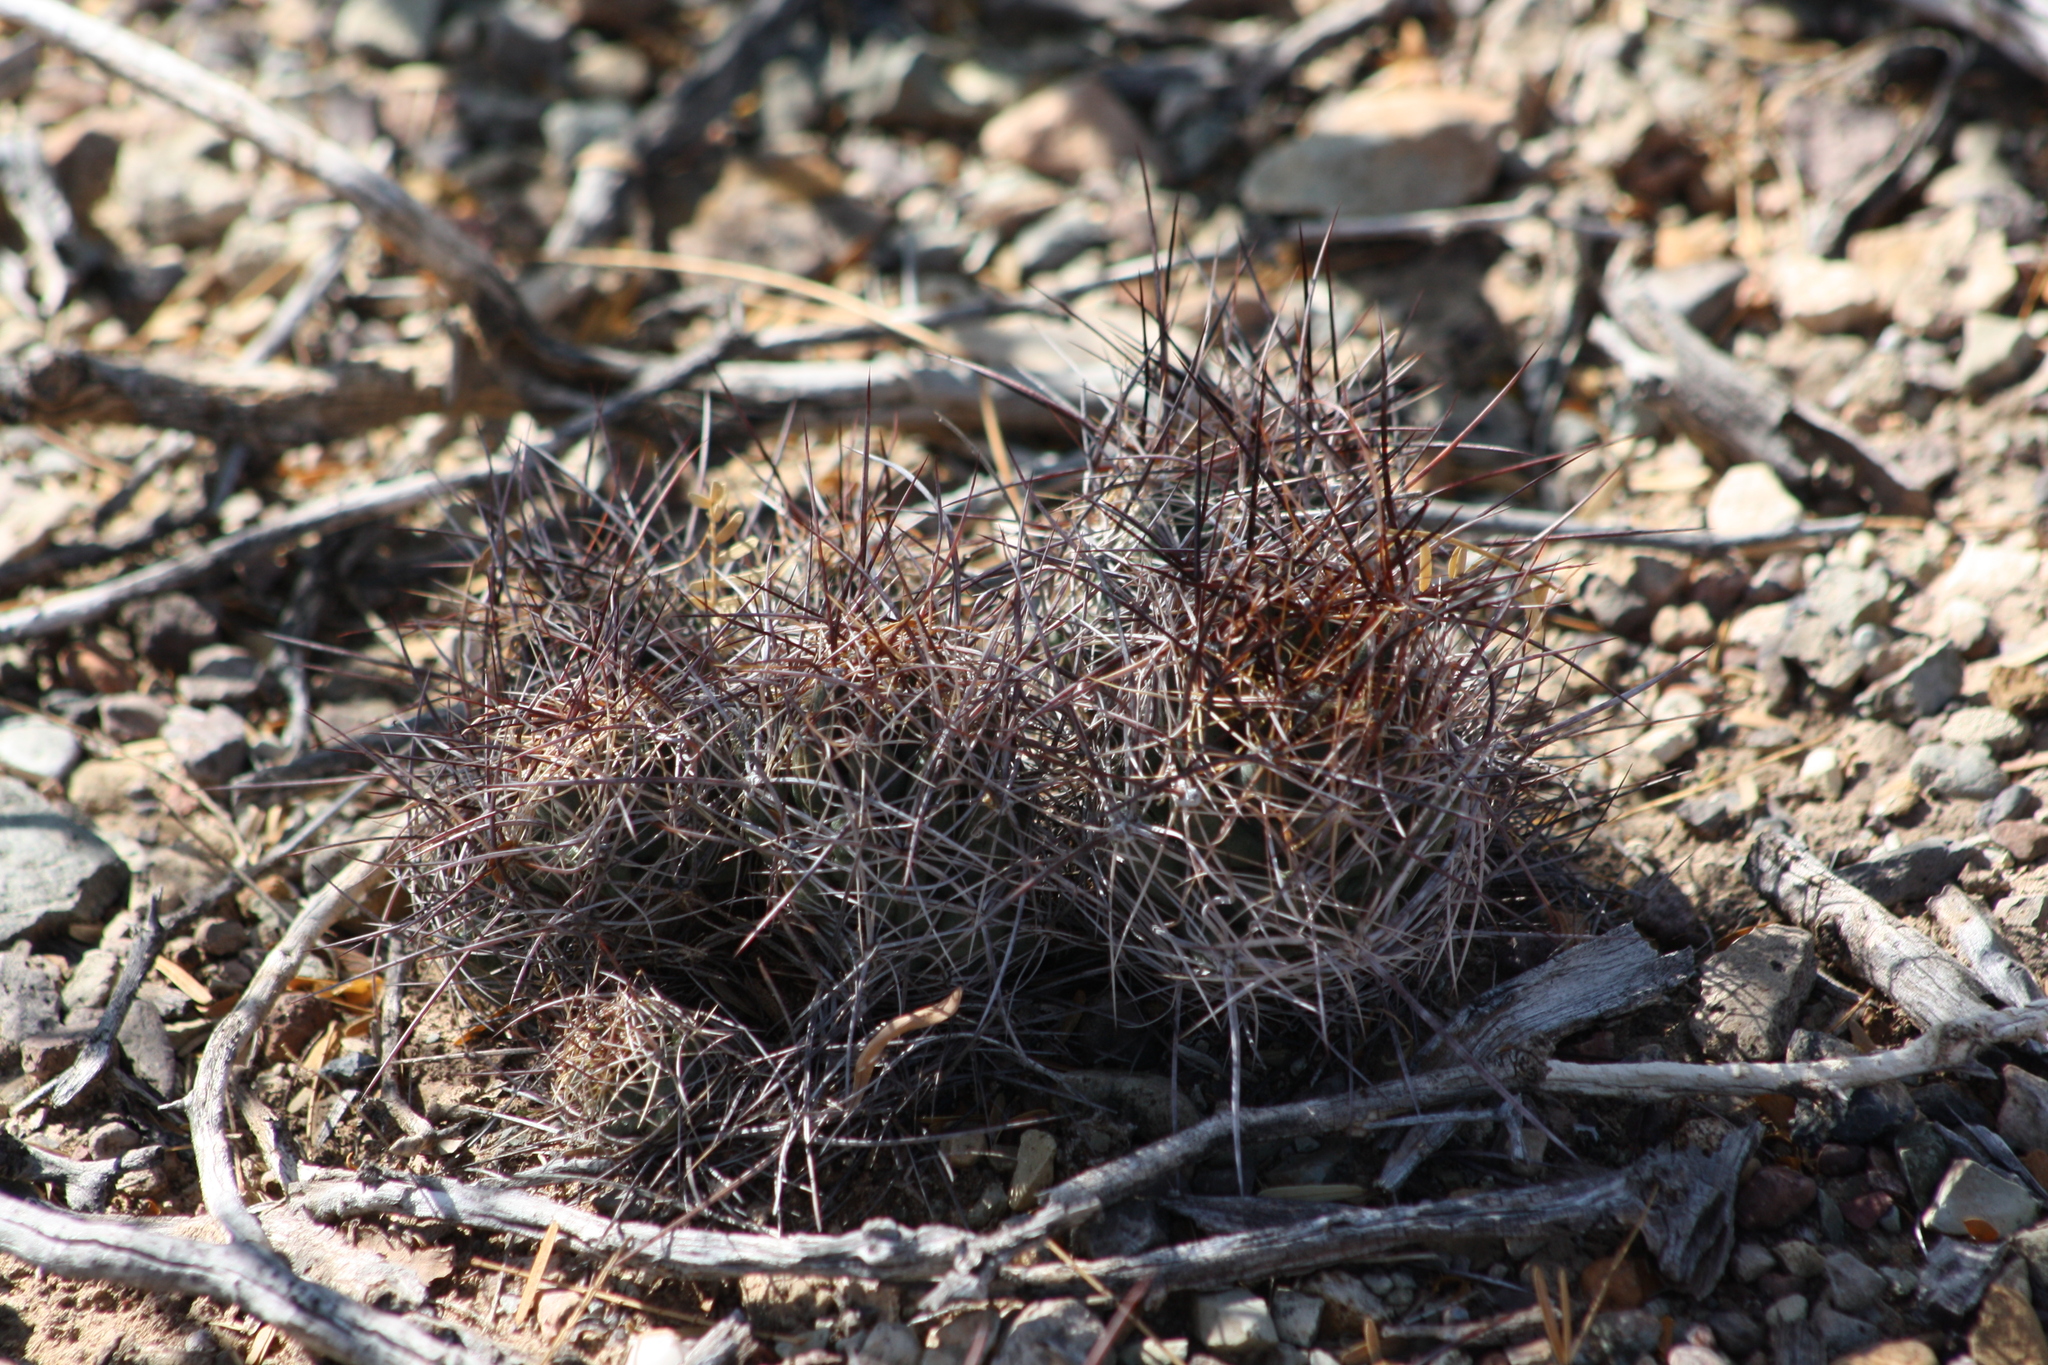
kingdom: Plantae
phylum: Tracheophyta
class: Magnoliopsida
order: Caryophyllales
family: Cactaceae
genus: Coryphantha
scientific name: Coryphantha macromeris
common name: Nipple beehive cactus
